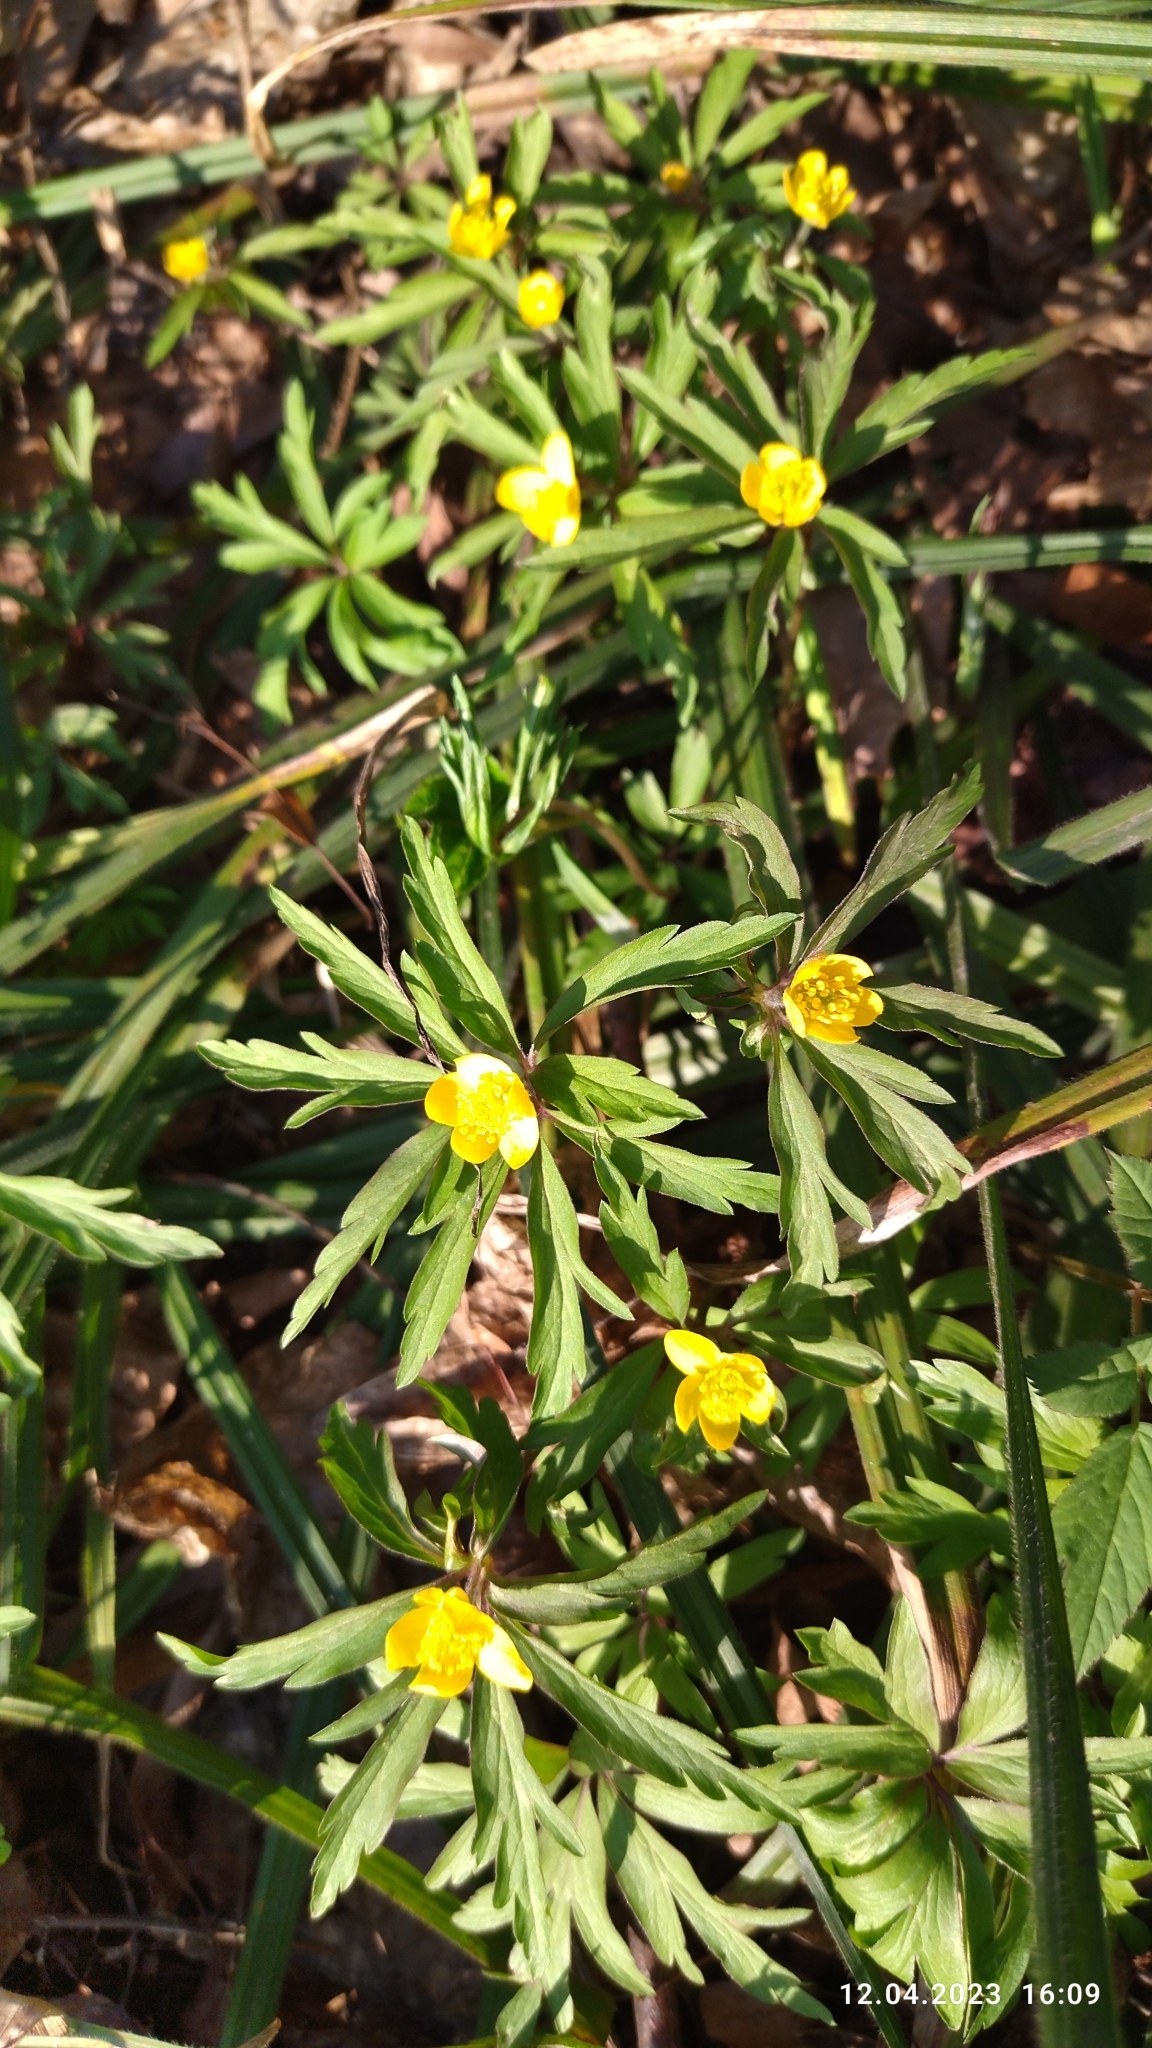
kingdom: Plantae
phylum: Tracheophyta
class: Magnoliopsida
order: Ranunculales
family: Ranunculaceae
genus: Anemone
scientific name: Anemone ranunculoides
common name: Yellow anemone
